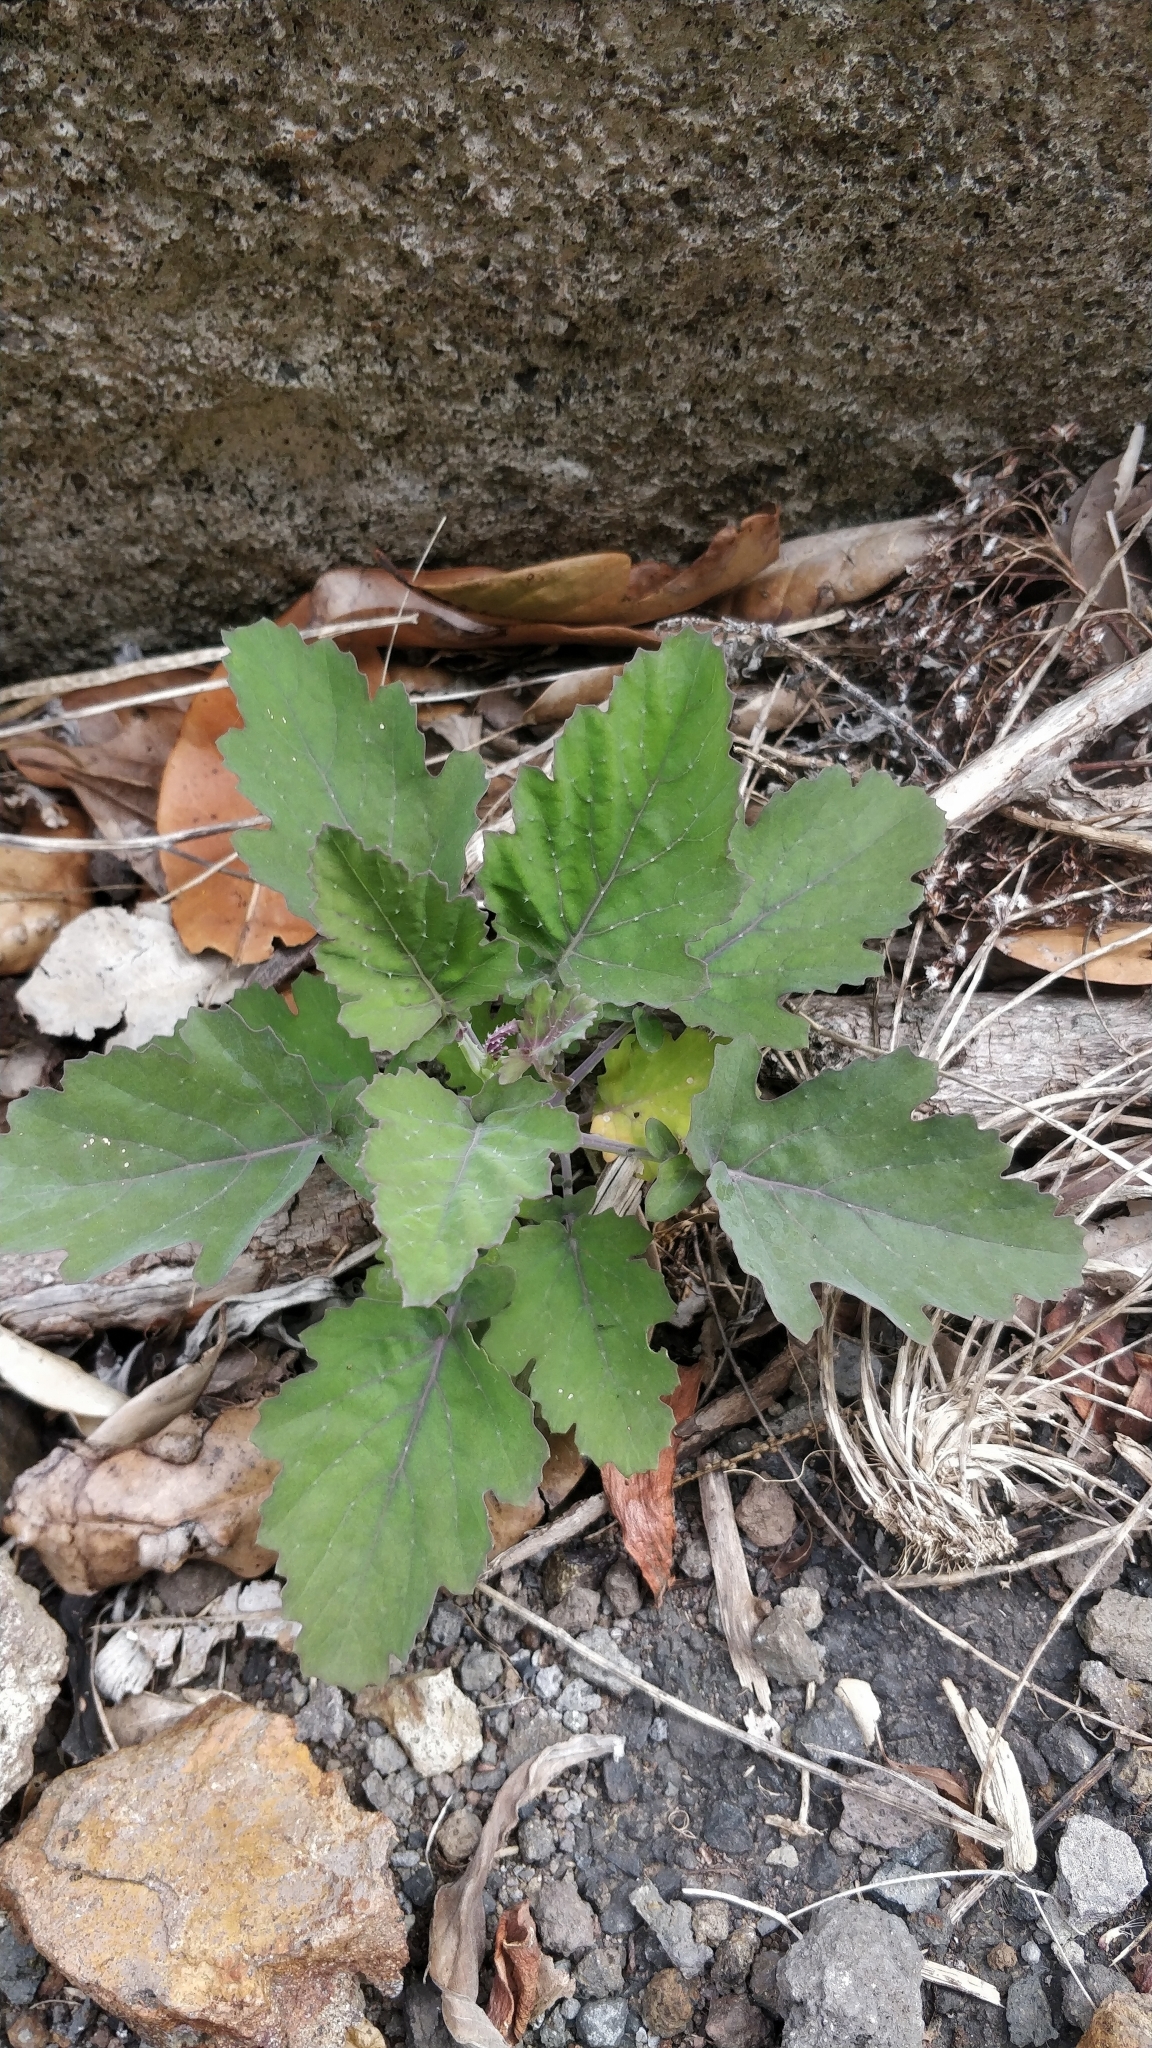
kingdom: Plantae
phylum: Tracheophyta
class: Magnoliopsida
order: Brassicales
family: Brassicaceae
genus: Crambe
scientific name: Crambe fruticosa
